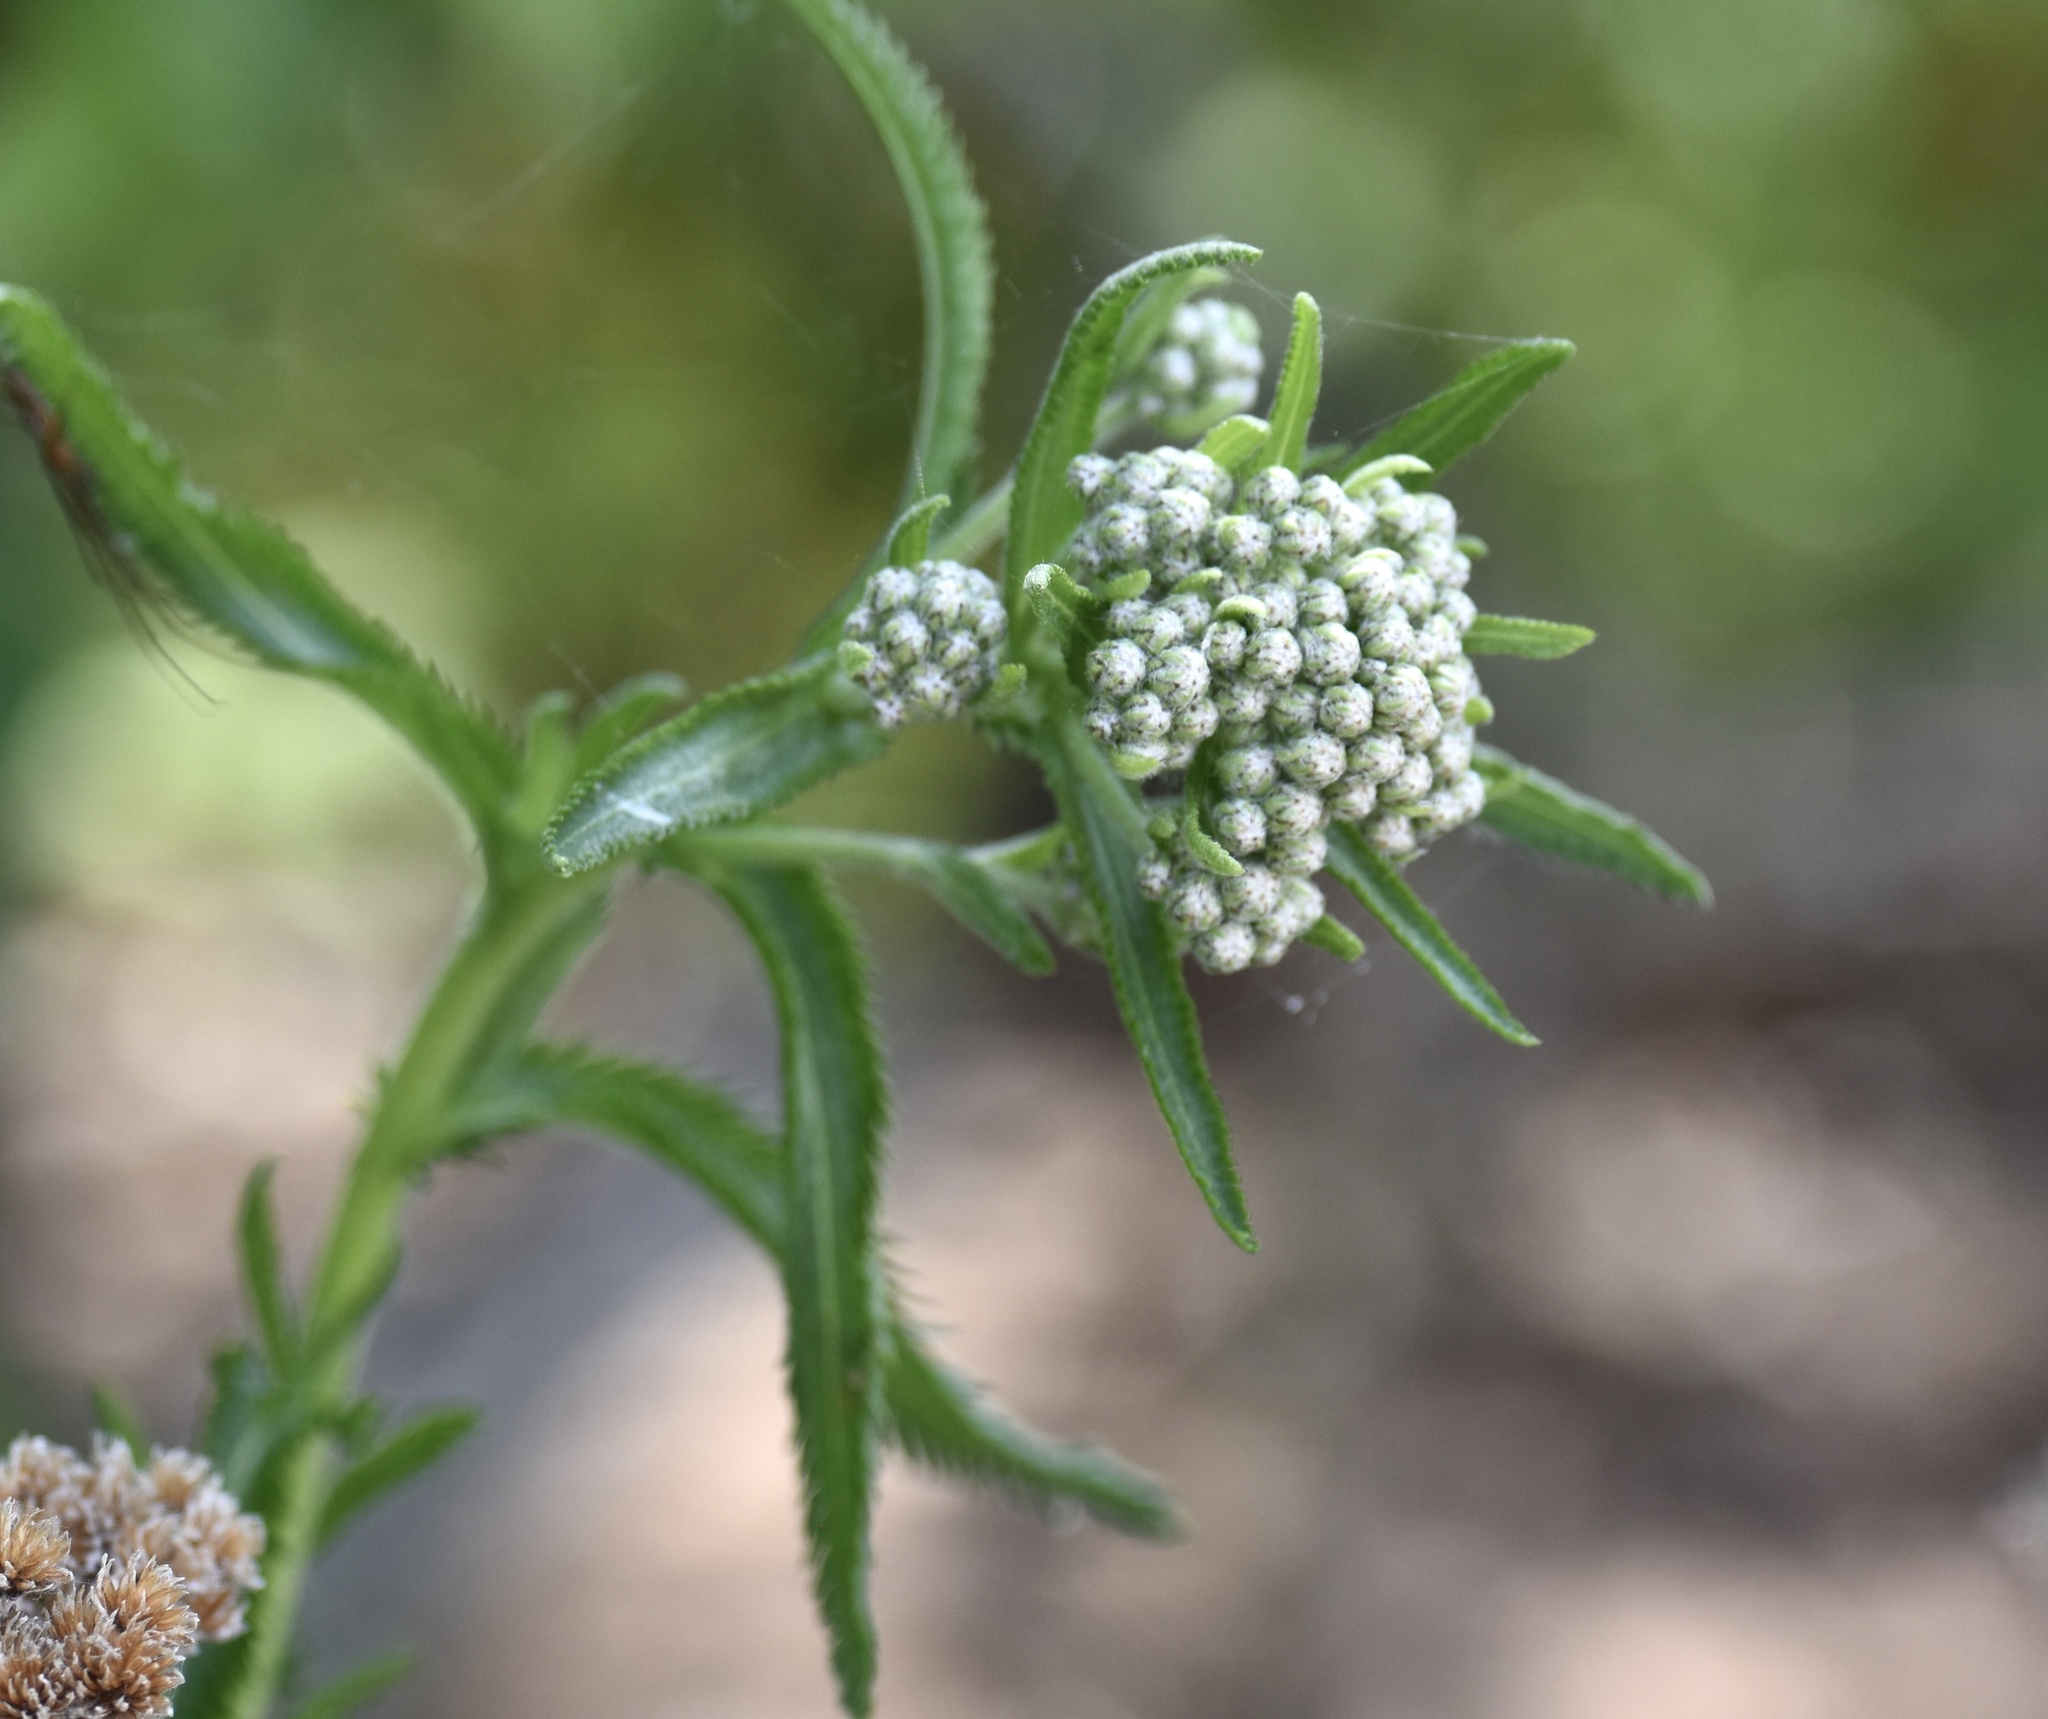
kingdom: Plantae
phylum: Tracheophyta
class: Magnoliopsida
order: Asterales
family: Asteraceae
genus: Achillea
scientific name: Achillea alpina
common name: Siberian yarrow
